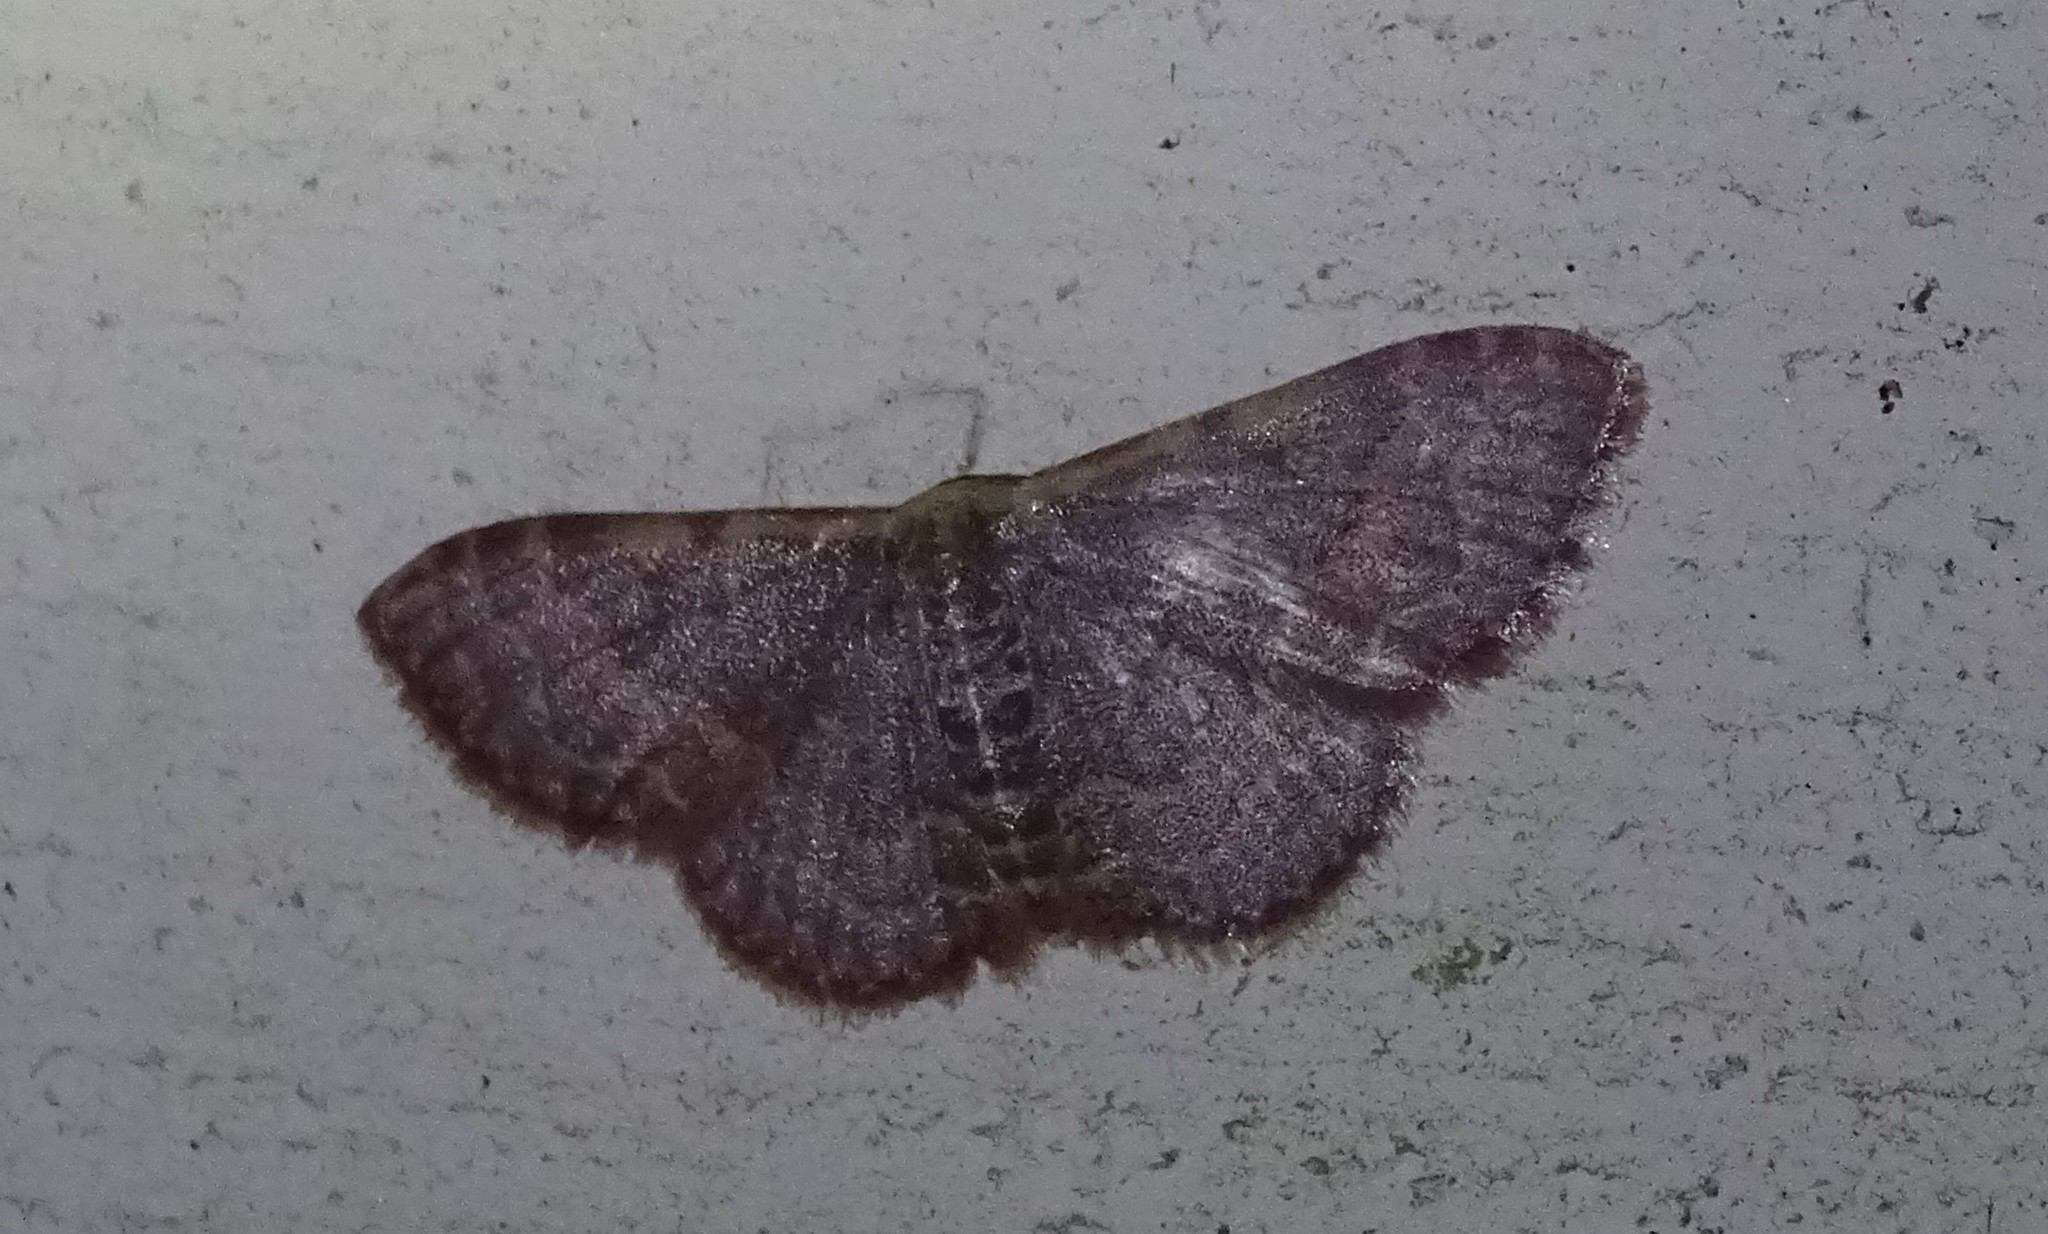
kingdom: Animalia
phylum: Arthropoda
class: Insecta
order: Lepidoptera
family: Geometridae
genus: Leptostales
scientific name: Leptostales pannaria
